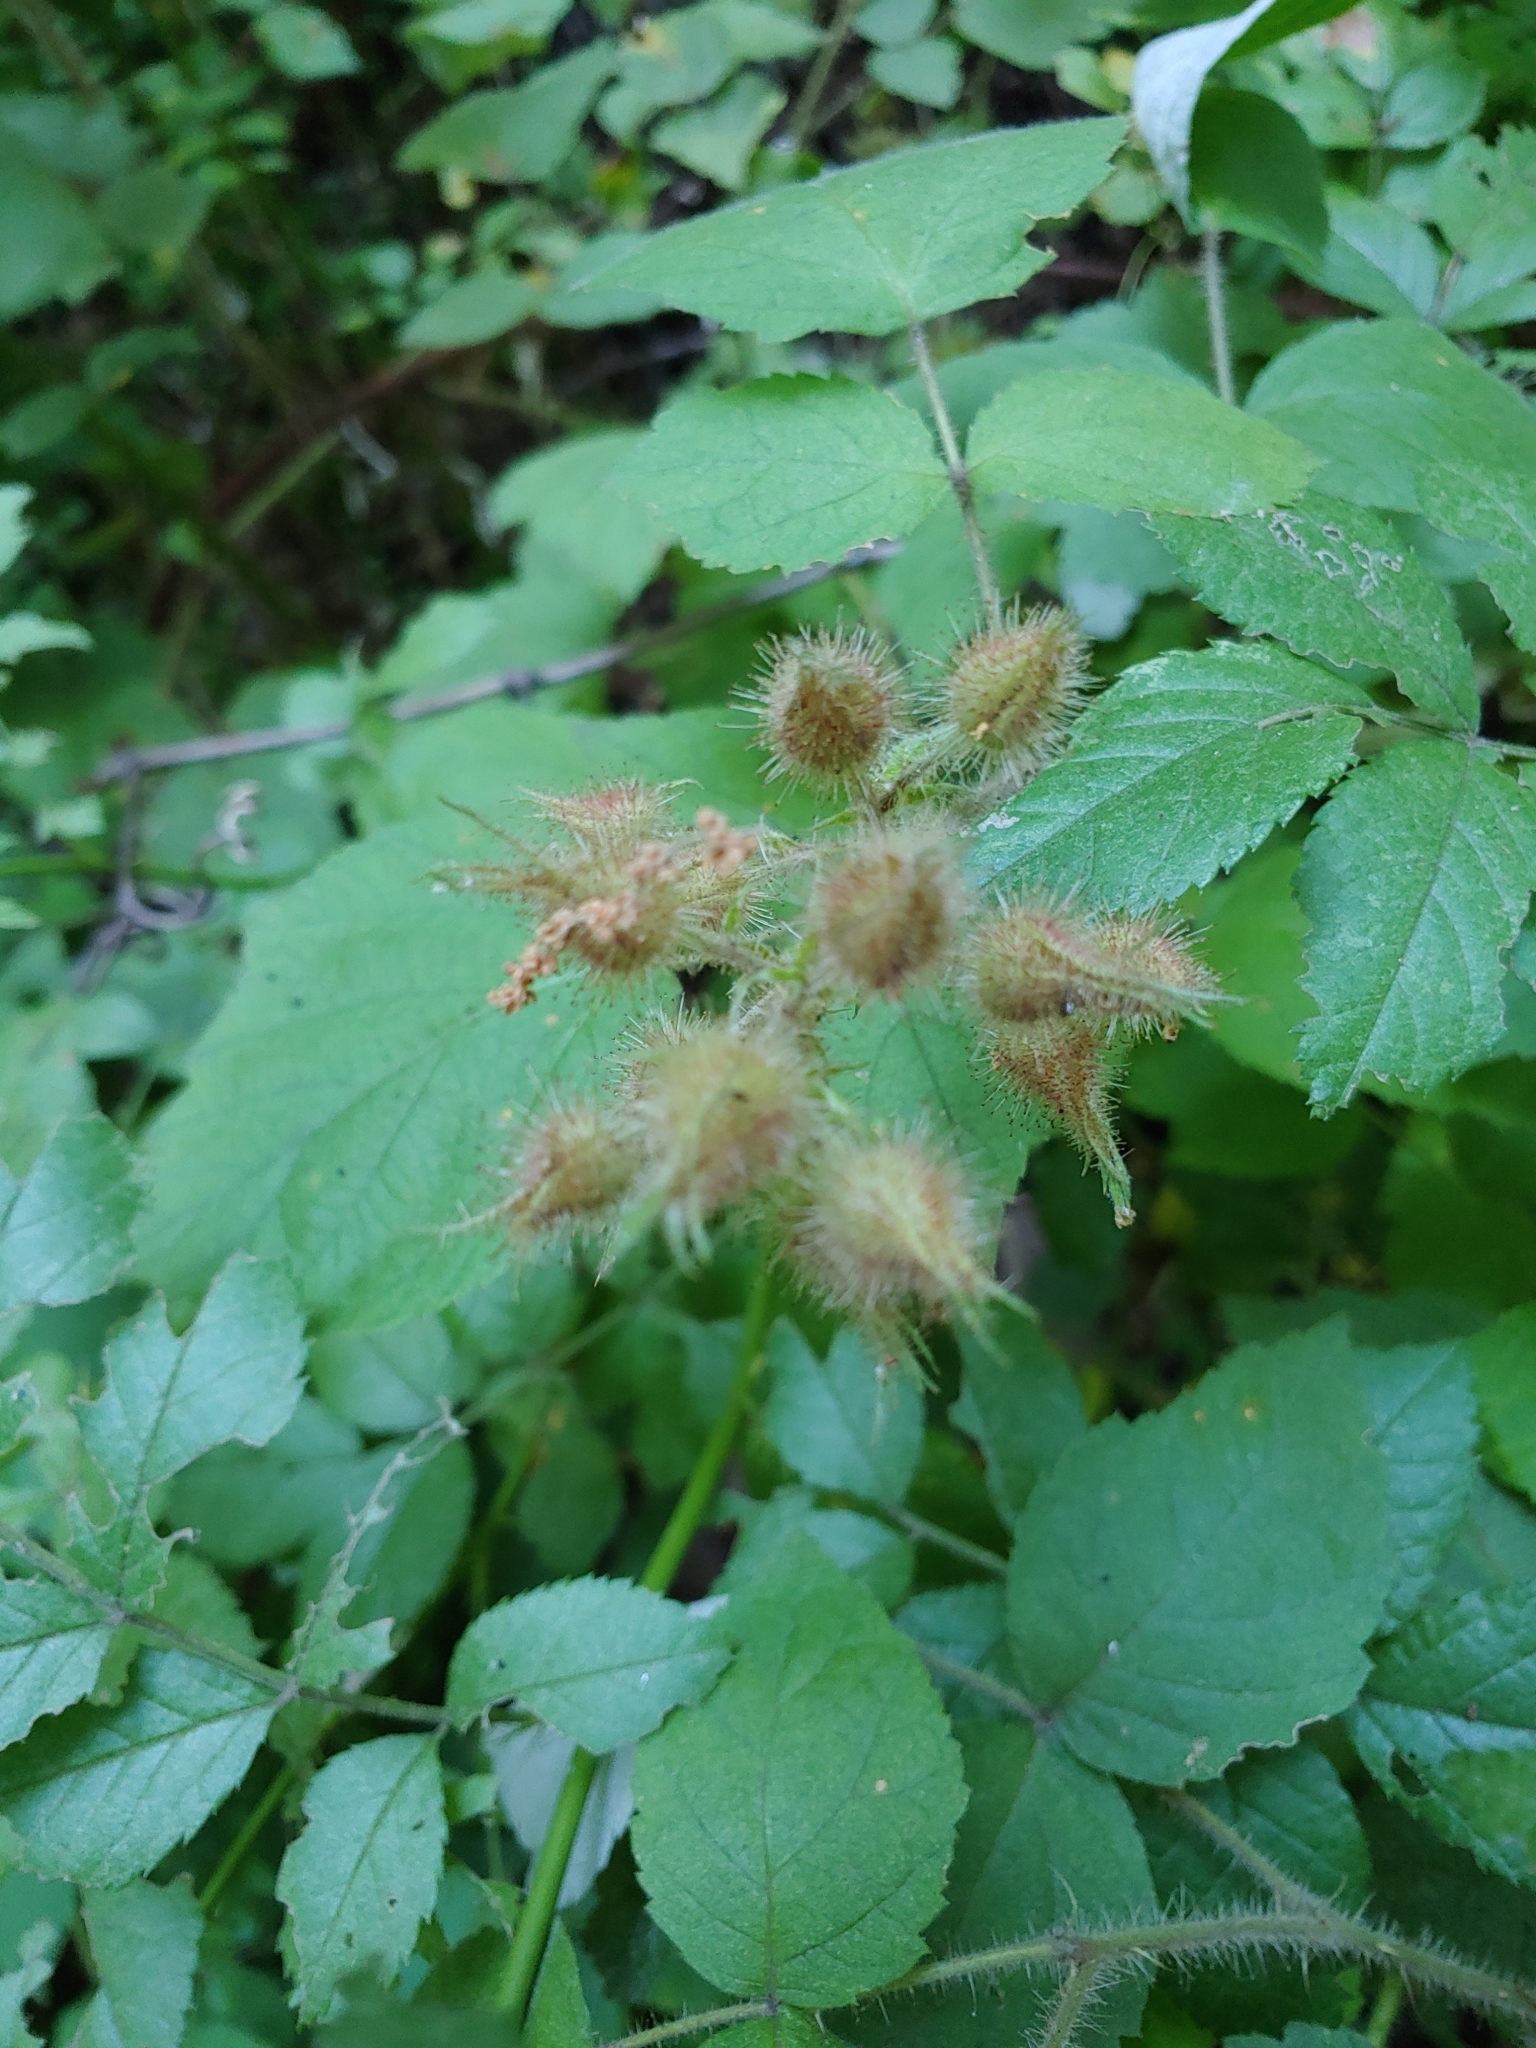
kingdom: Plantae
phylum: Tracheophyta
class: Magnoliopsida
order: Rosales
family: Rosaceae
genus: Rubus
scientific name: Rubus phoenicolasius
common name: Japanese wineberry
